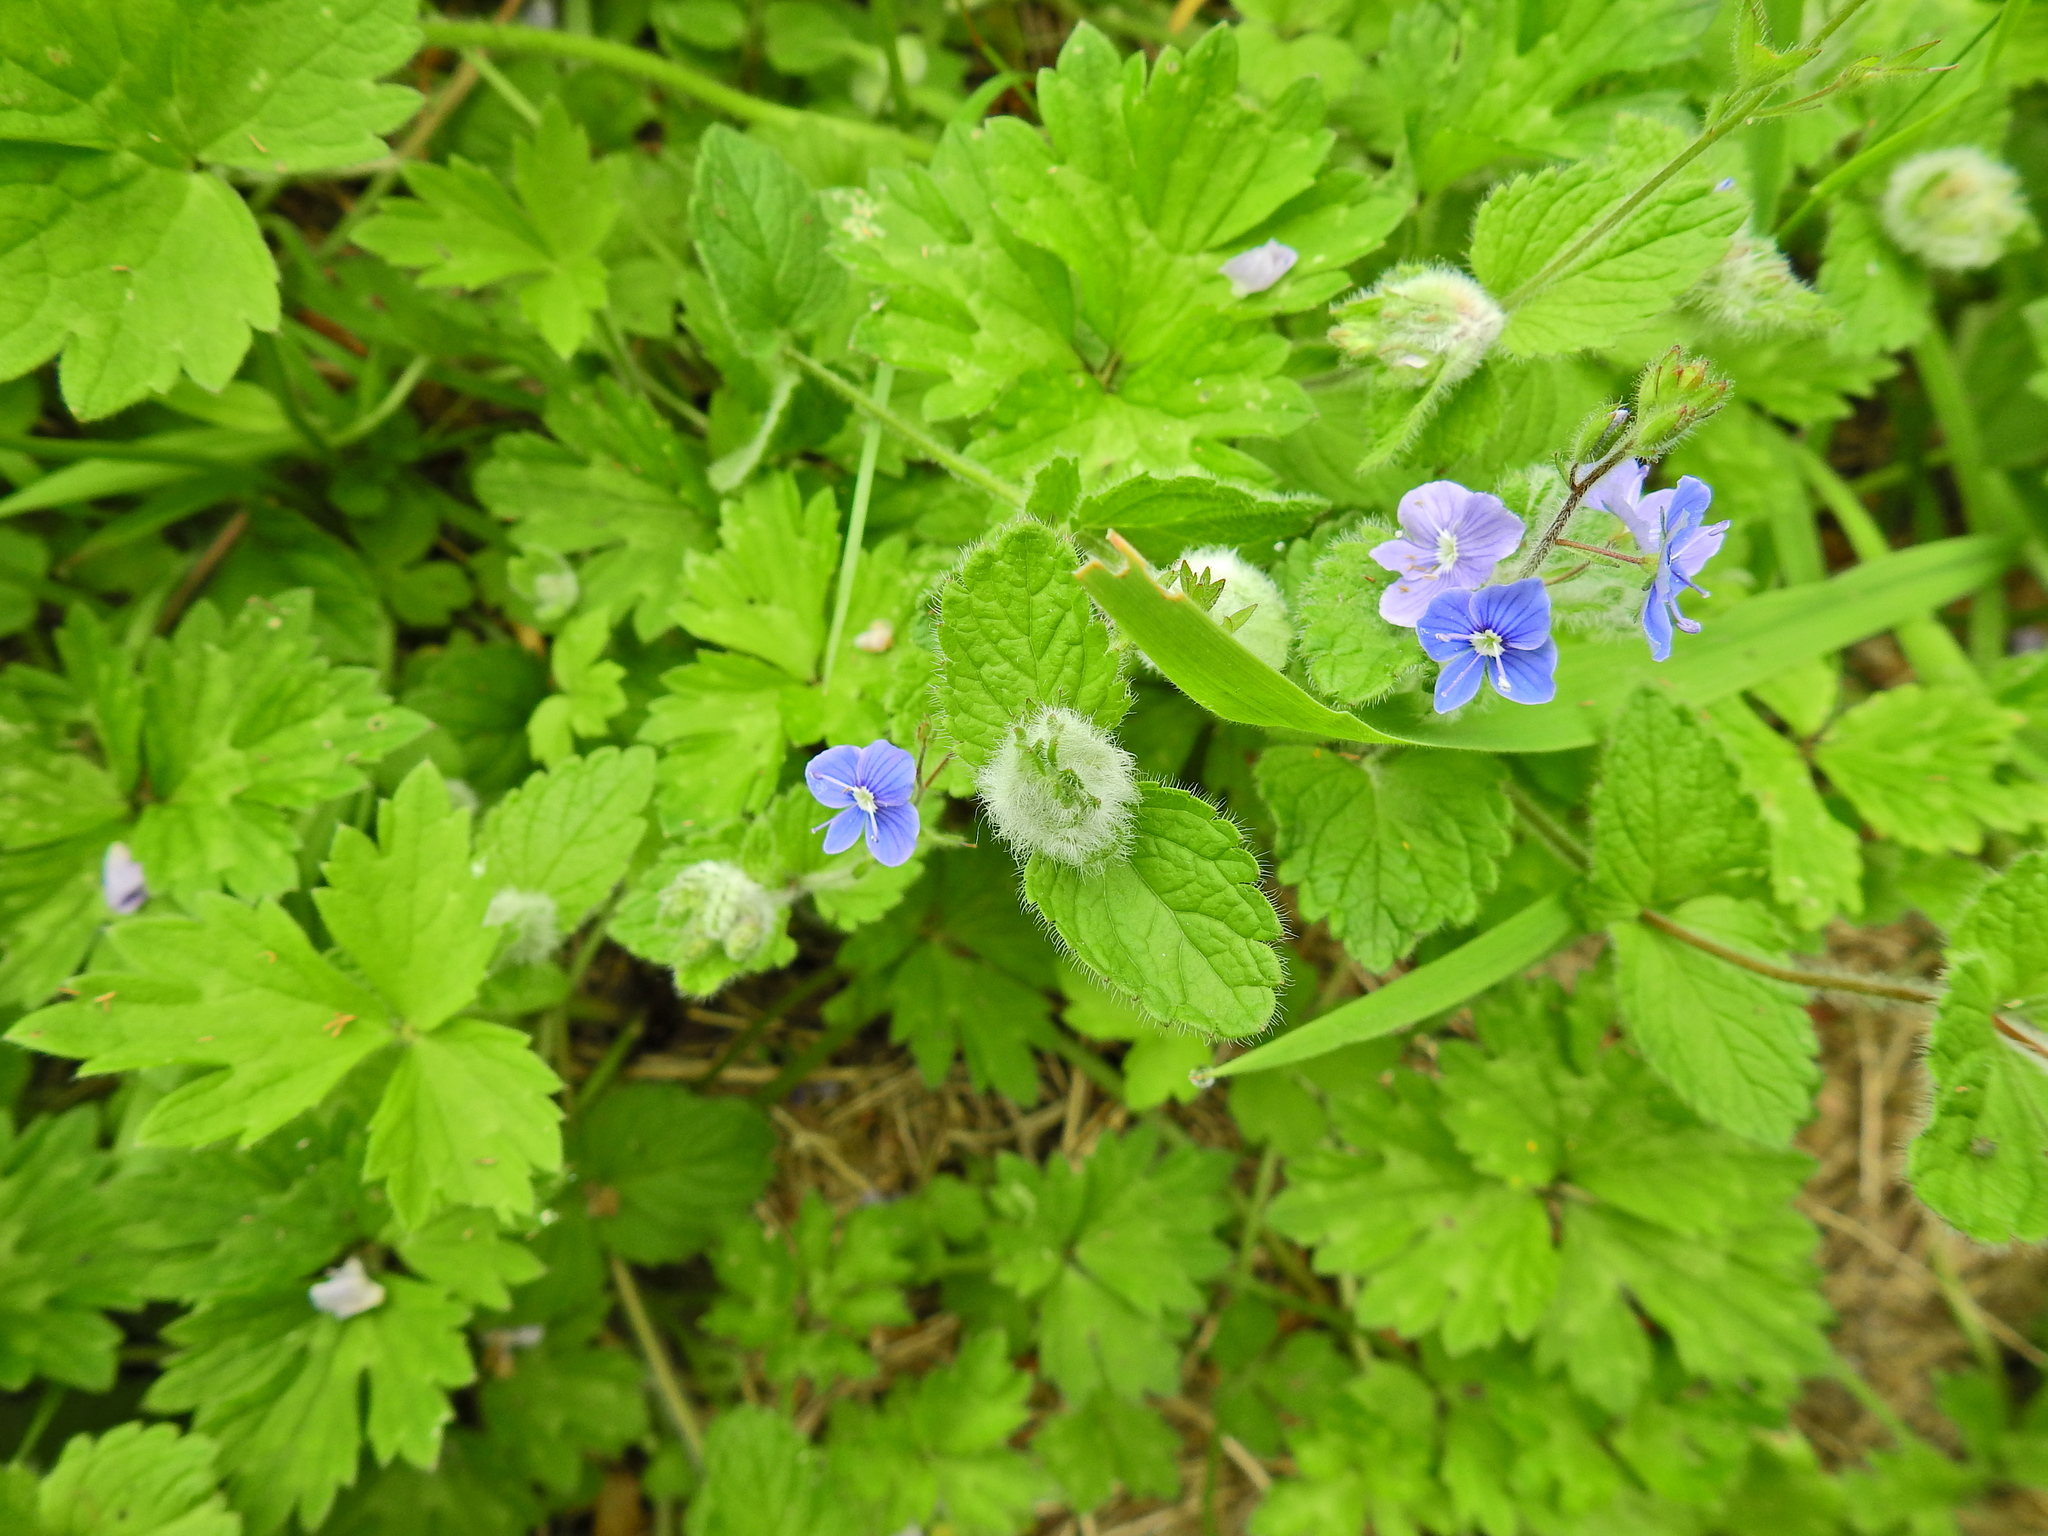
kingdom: Animalia
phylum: Arthropoda
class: Insecta
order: Diptera
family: Cecidomyiidae
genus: Jaapiella
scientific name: Jaapiella veronicae
